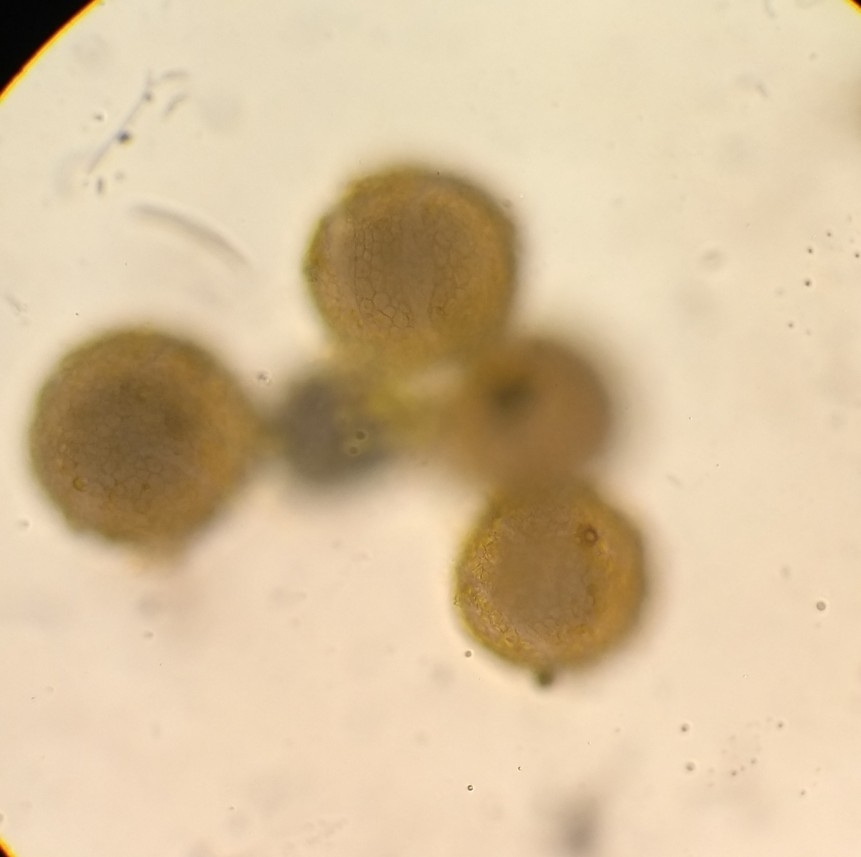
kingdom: Plantae
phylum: Tracheophyta
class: Magnoliopsida
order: Malpighiales
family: Passifloraceae
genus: Passiflora
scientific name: Passiflora caerulea
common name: Blue passionflower
